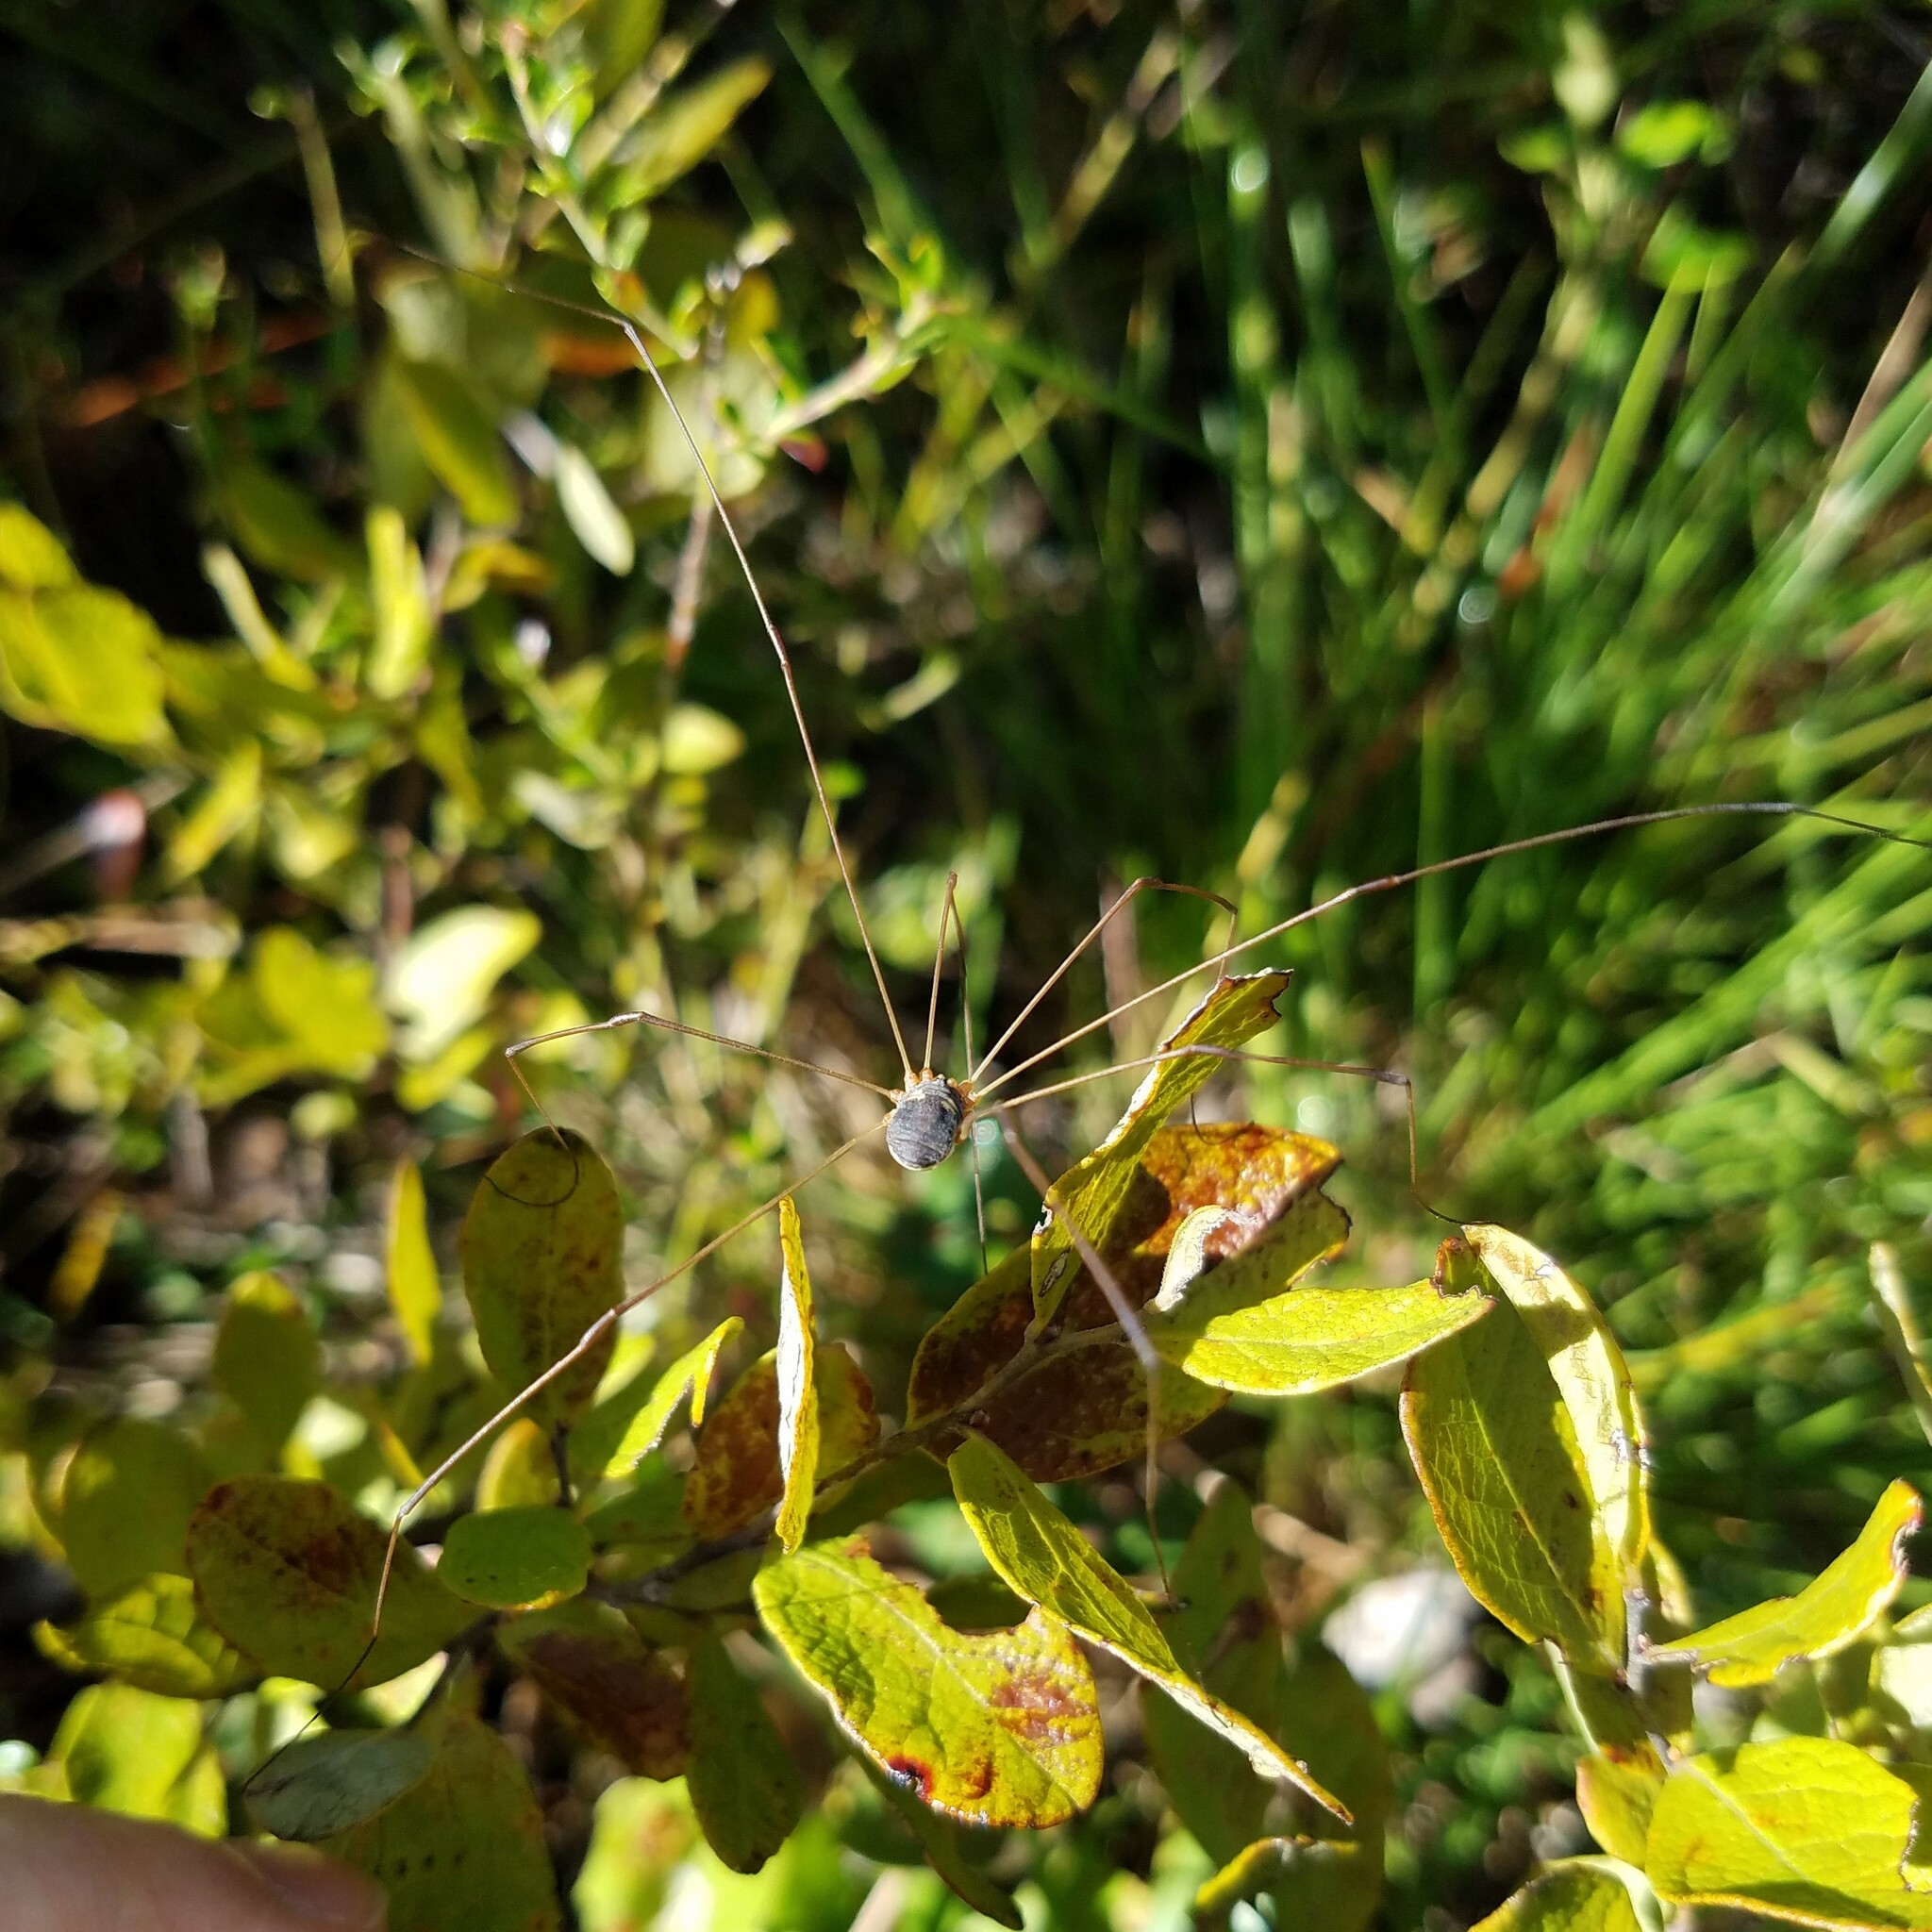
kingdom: Animalia
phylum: Arthropoda
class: Arachnida
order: Opiliones
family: Sclerosomatidae
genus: Leiobunum
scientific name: Leiobunum bimaculatum
